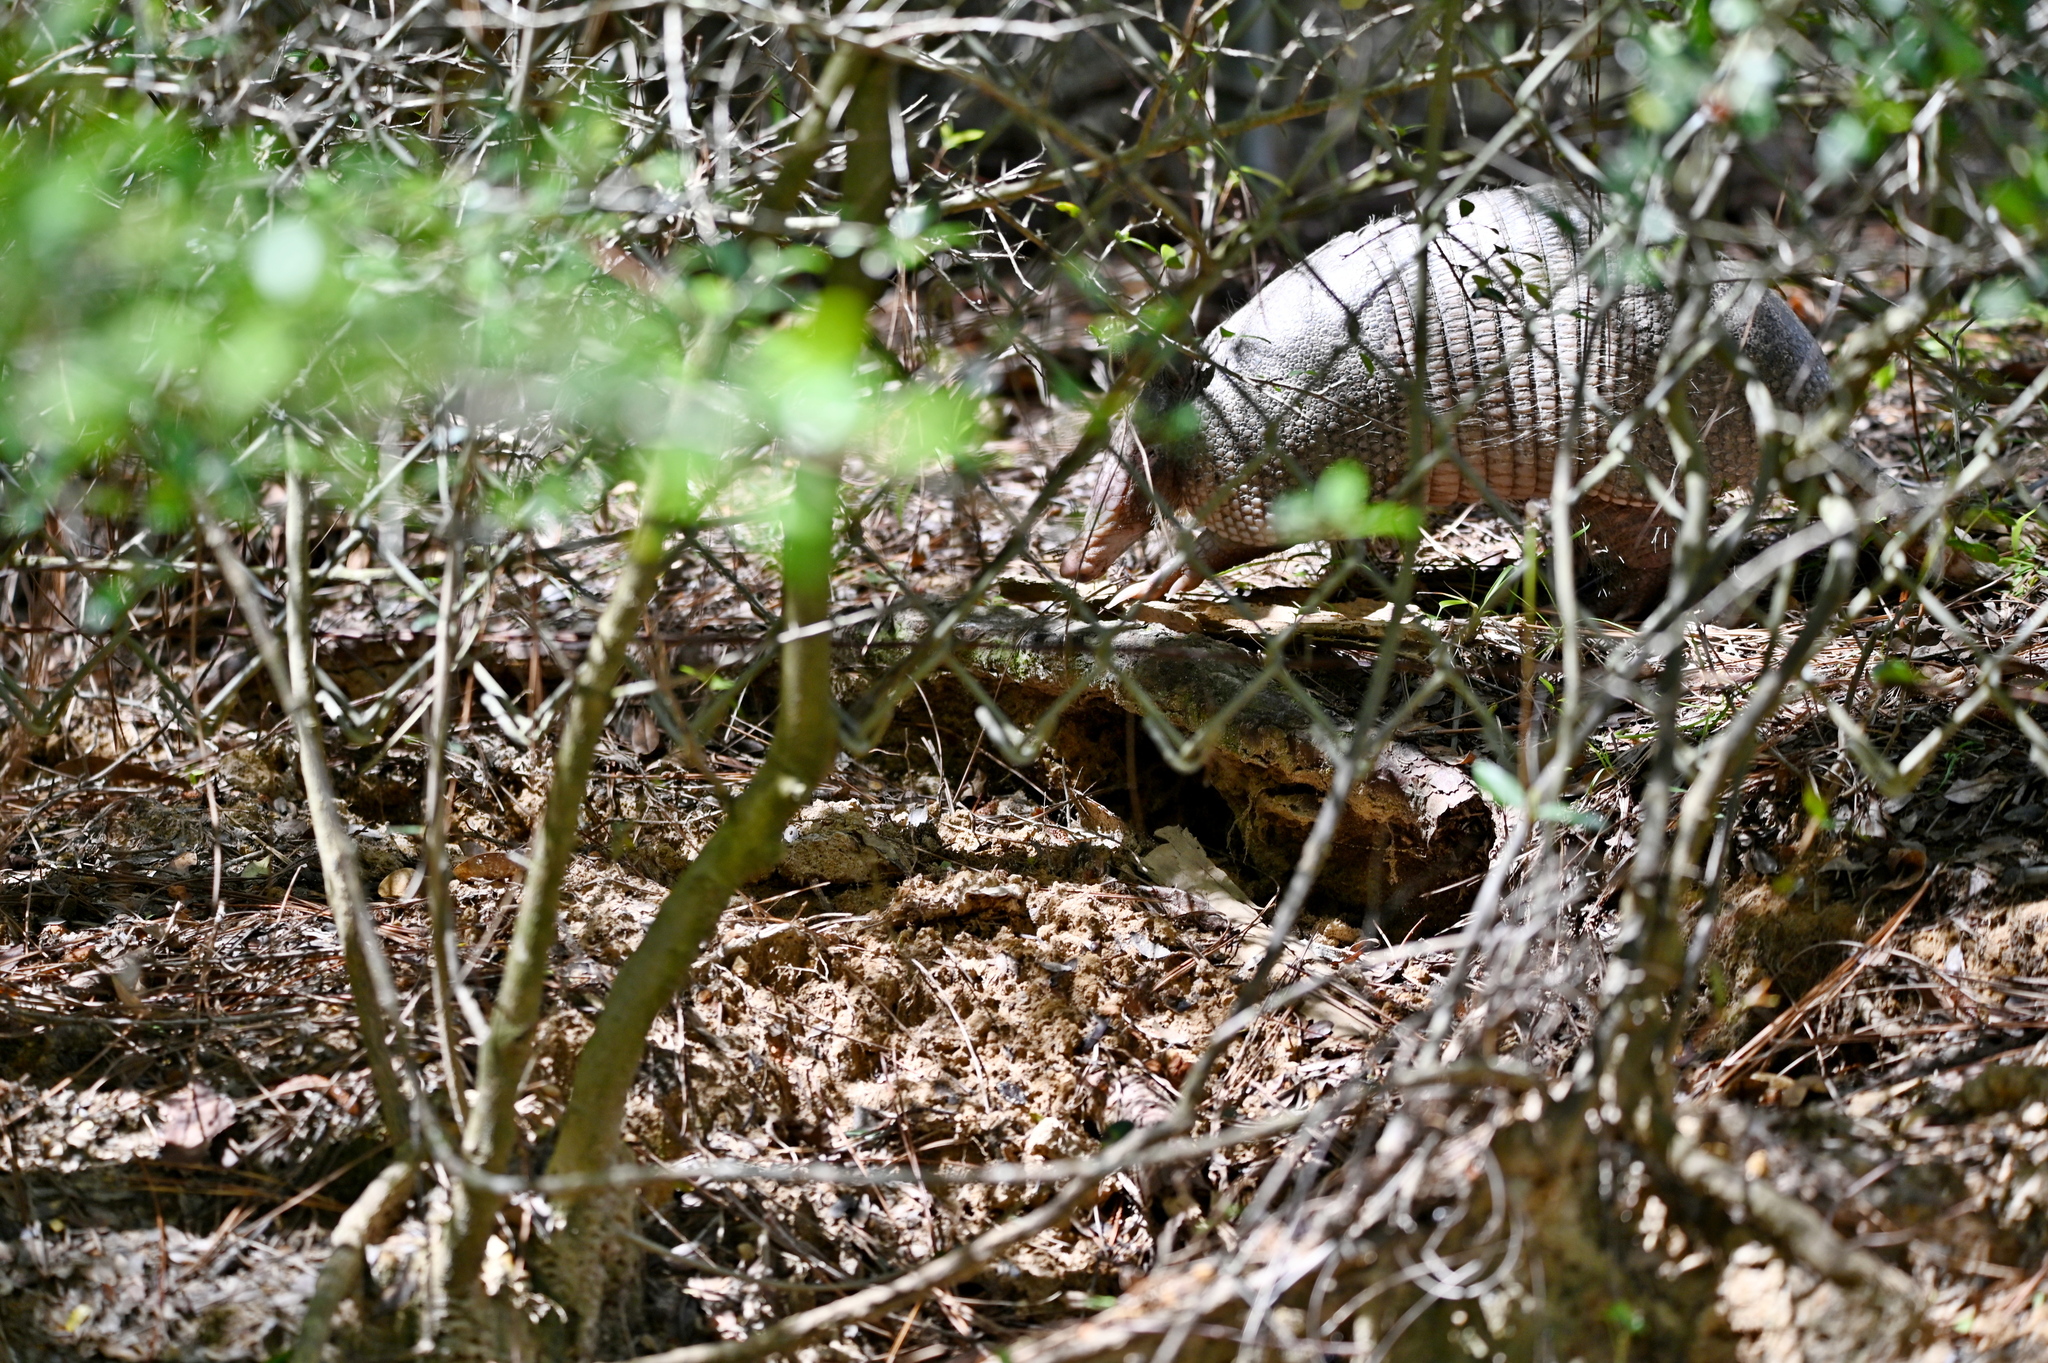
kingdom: Animalia
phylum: Chordata
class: Mammalia
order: Cingulata
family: Dasypodidae
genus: Dasypus
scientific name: Dasypus novemcinctus
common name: Nine-banded armadillo
